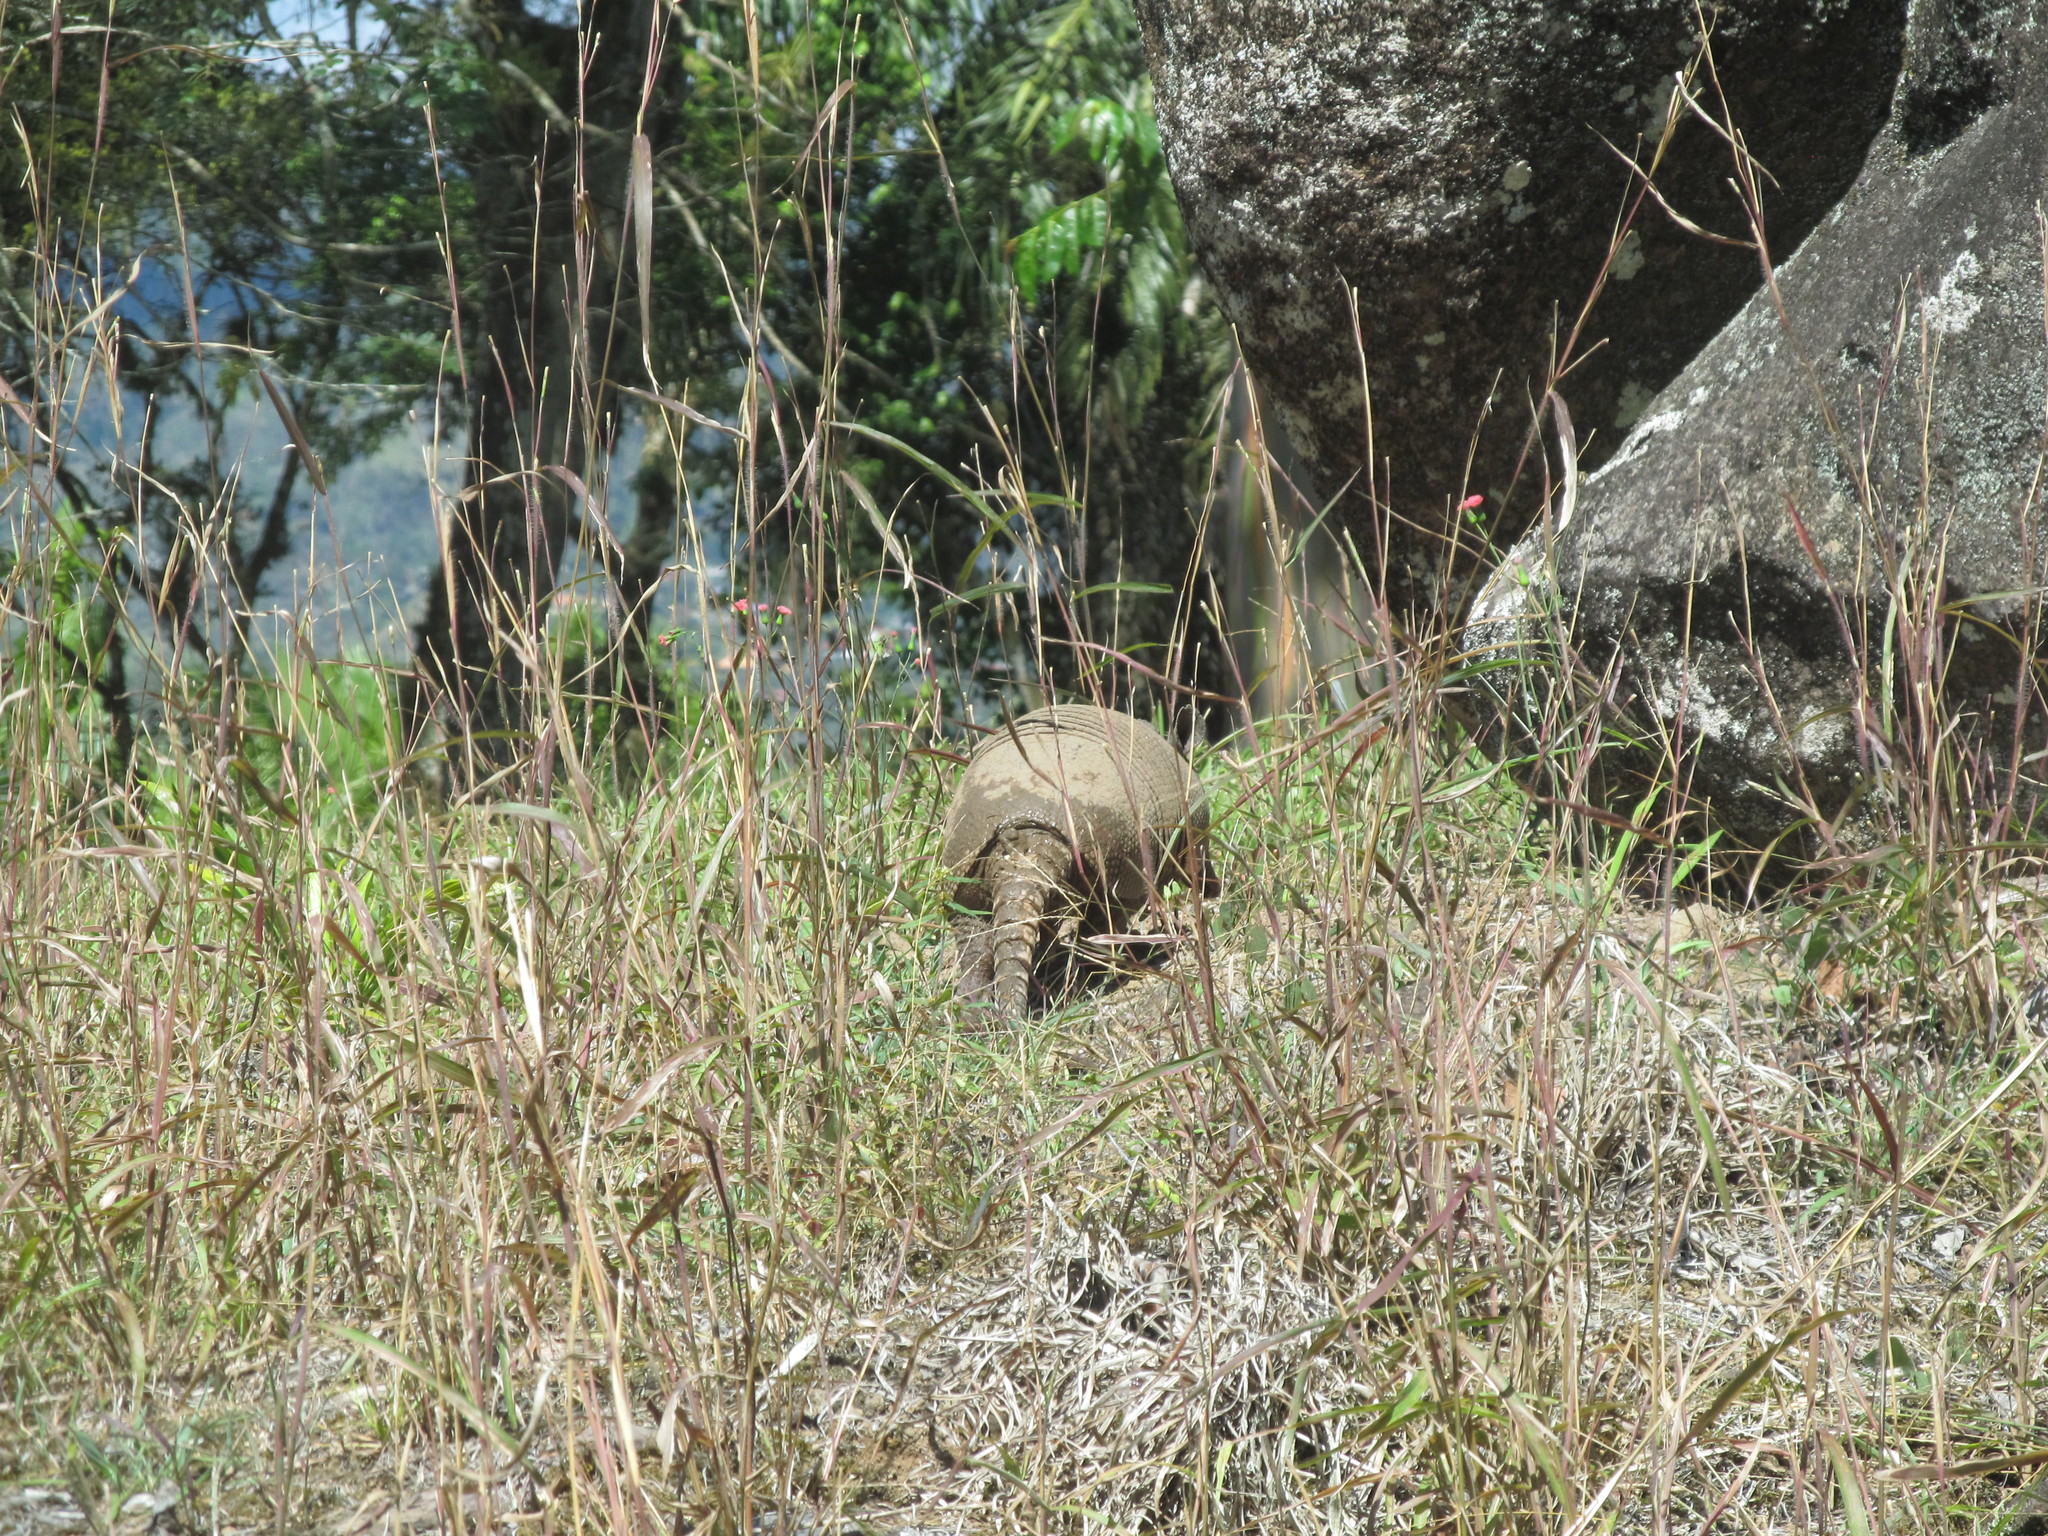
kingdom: Animalia
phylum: Chordata
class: Mammalia
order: Cingulata
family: Dasypodidae
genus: Dasypus
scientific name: Dasypus novemcinctus
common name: Nine-banded armadillo
